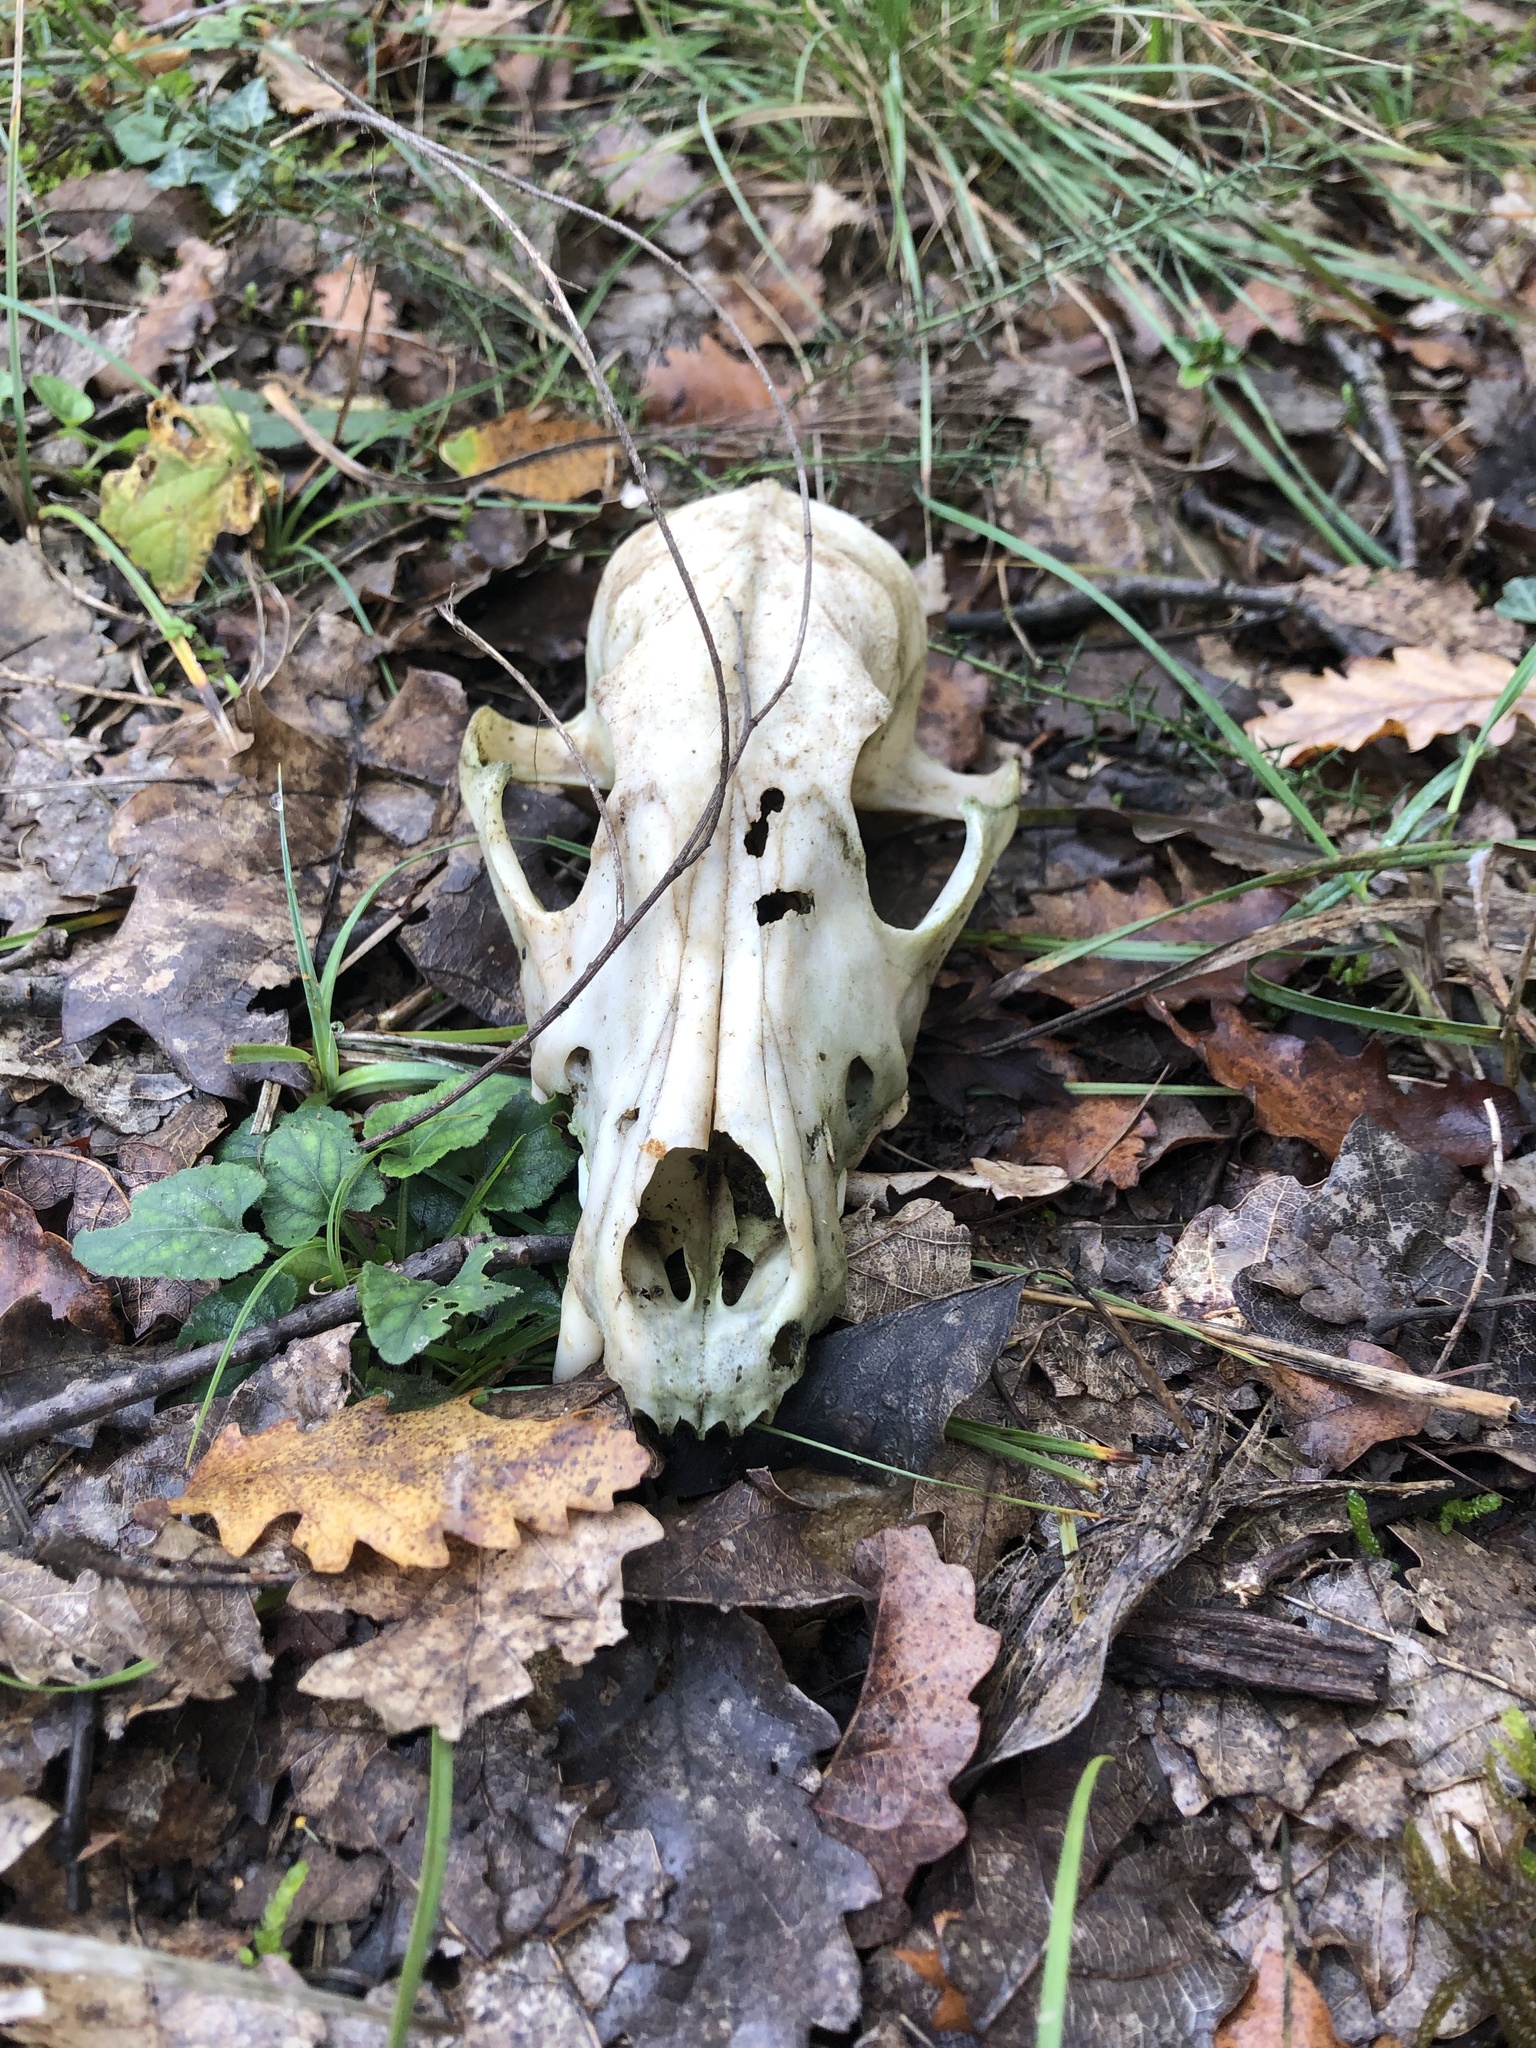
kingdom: Animalia
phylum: Chordata
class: Mammalia
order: Carnivora
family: Canidae
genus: Vulpes
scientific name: Vulpes vulpes
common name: Red fox
